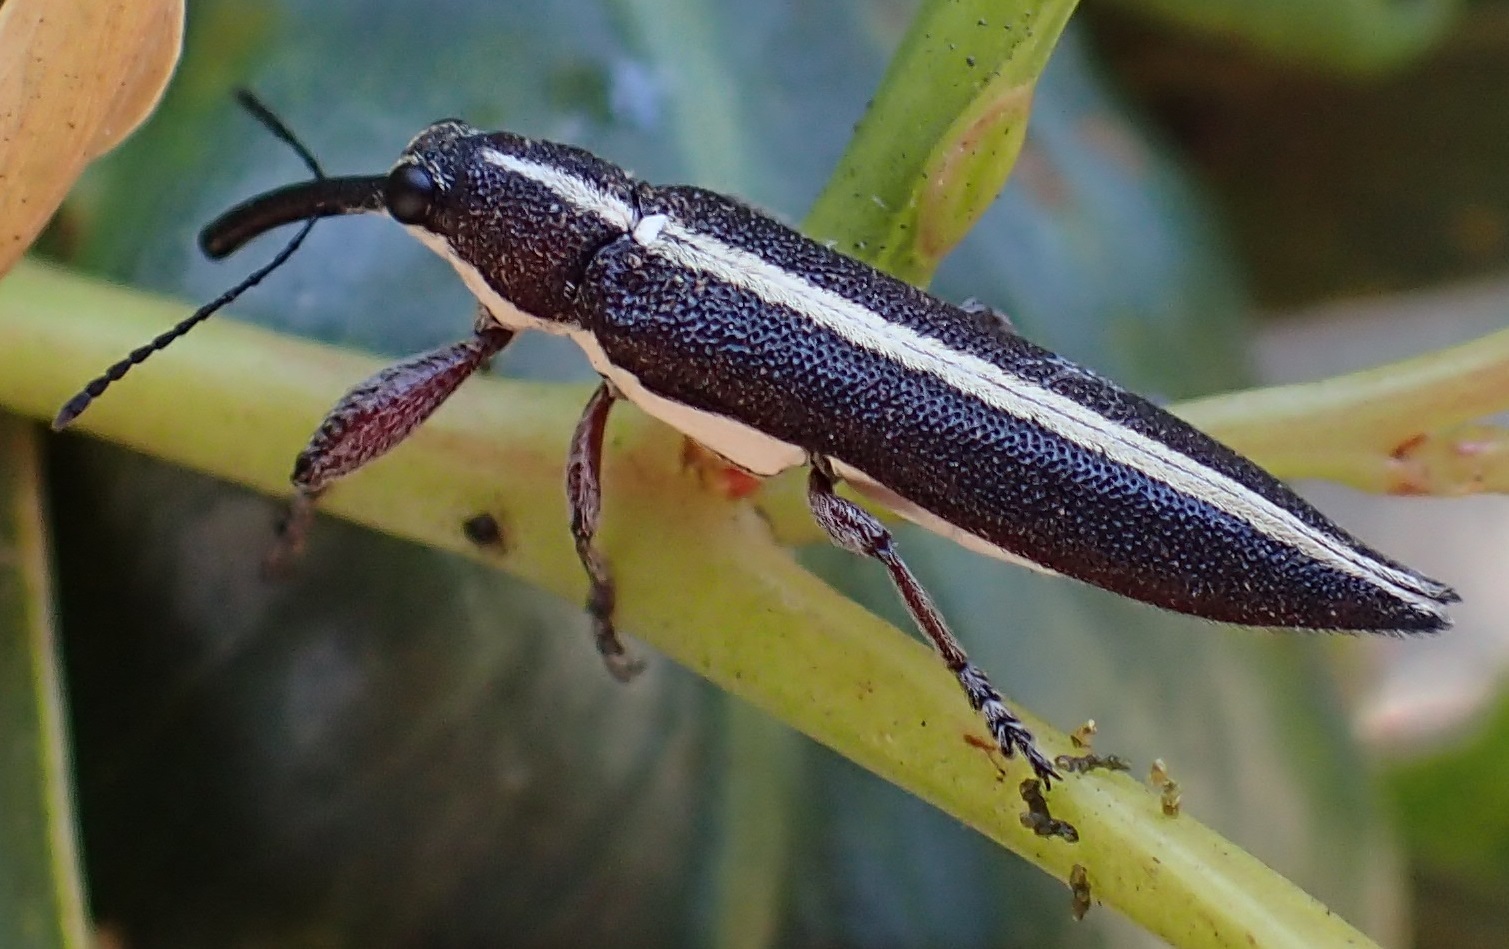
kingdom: Animalia
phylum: Arthropoda
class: Insecta
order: Coleoptera
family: Belidae
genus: Rhinotia
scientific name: Rhinotia suturalis
